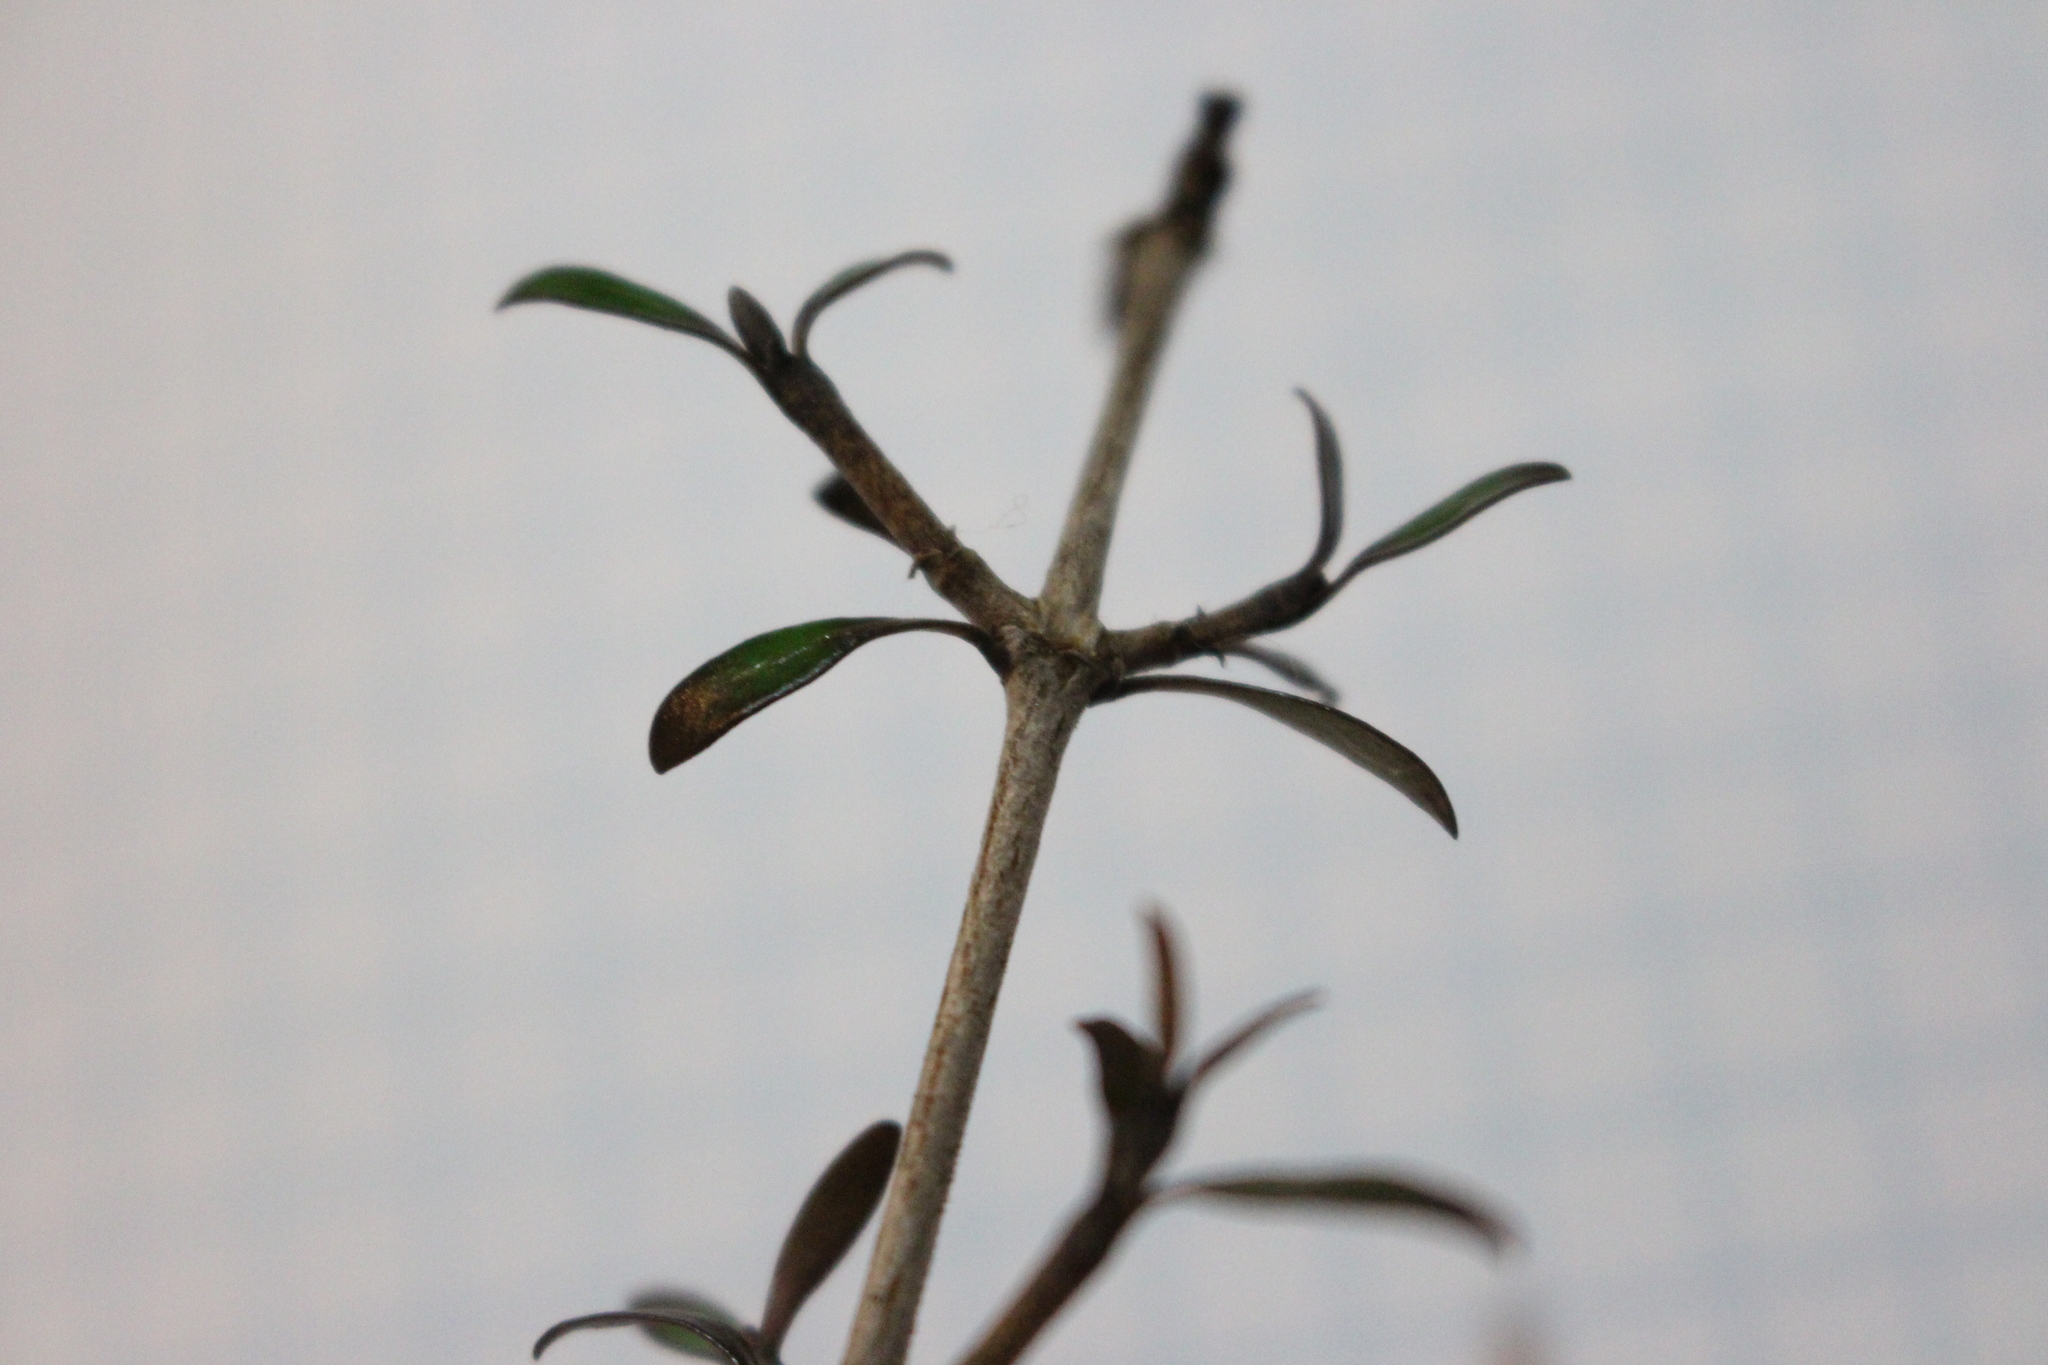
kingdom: Plantae
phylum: Tracheophyta
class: Magnoliopsida
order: Gentianales
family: Rubiaceae
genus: Coprosma
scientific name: Coprosma propinqua
